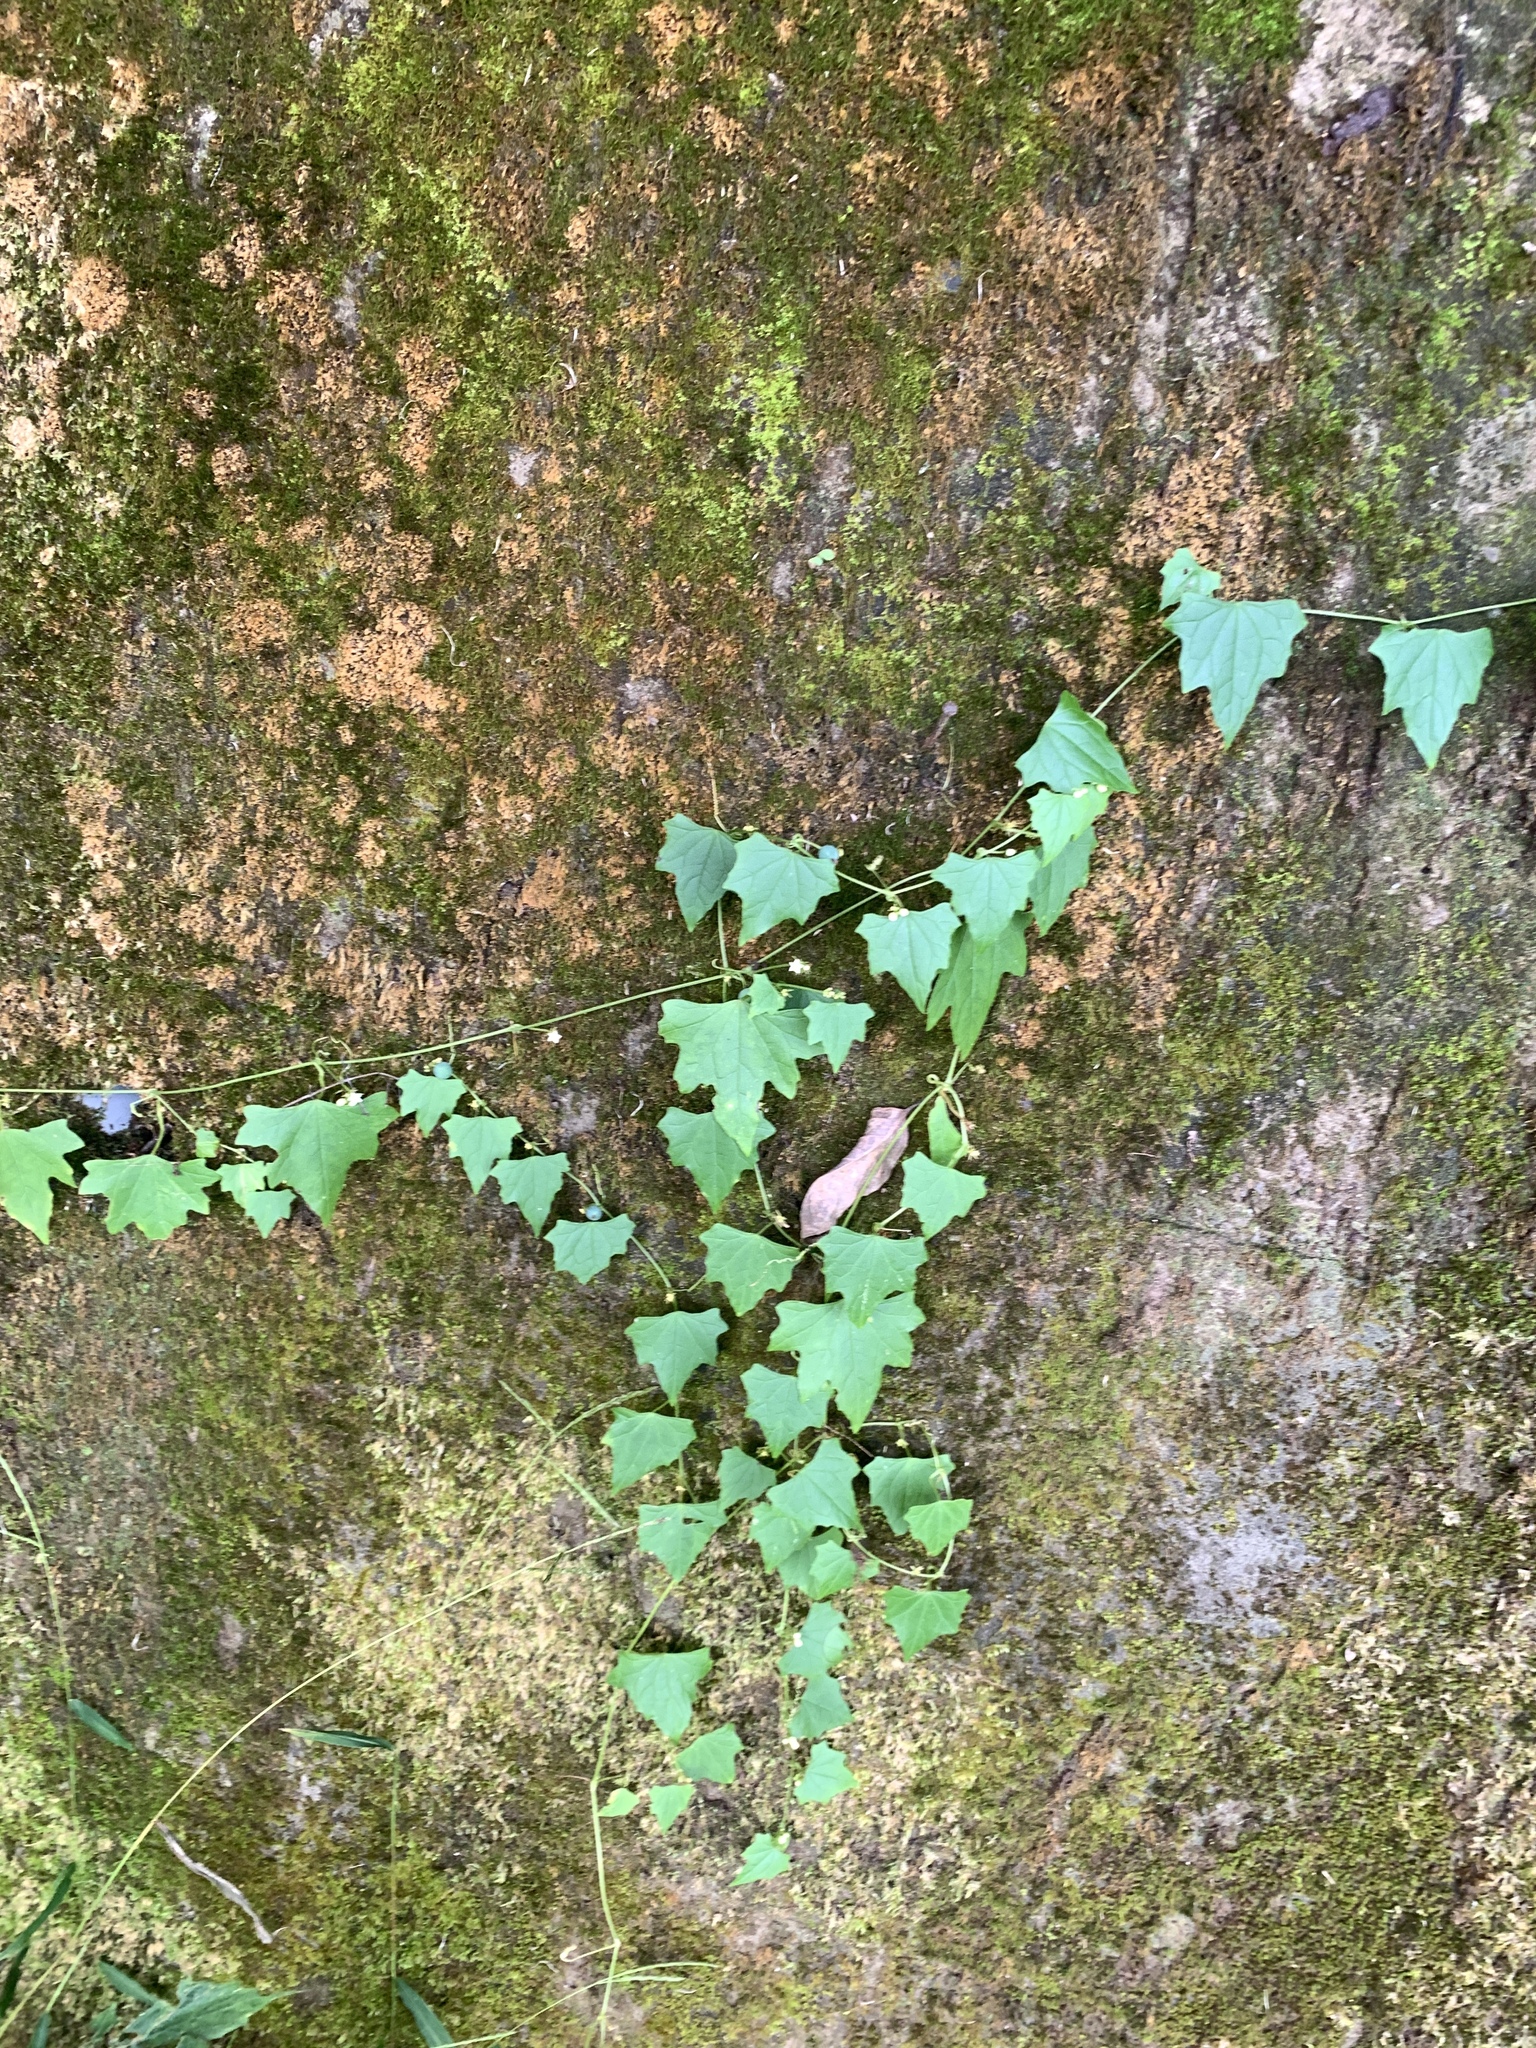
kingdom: Plantae
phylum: Tracheophyta
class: Magnoliopsida
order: Cucurbitales
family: Cucurbitaceae
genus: Zehneria
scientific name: Zehneria guamensis
